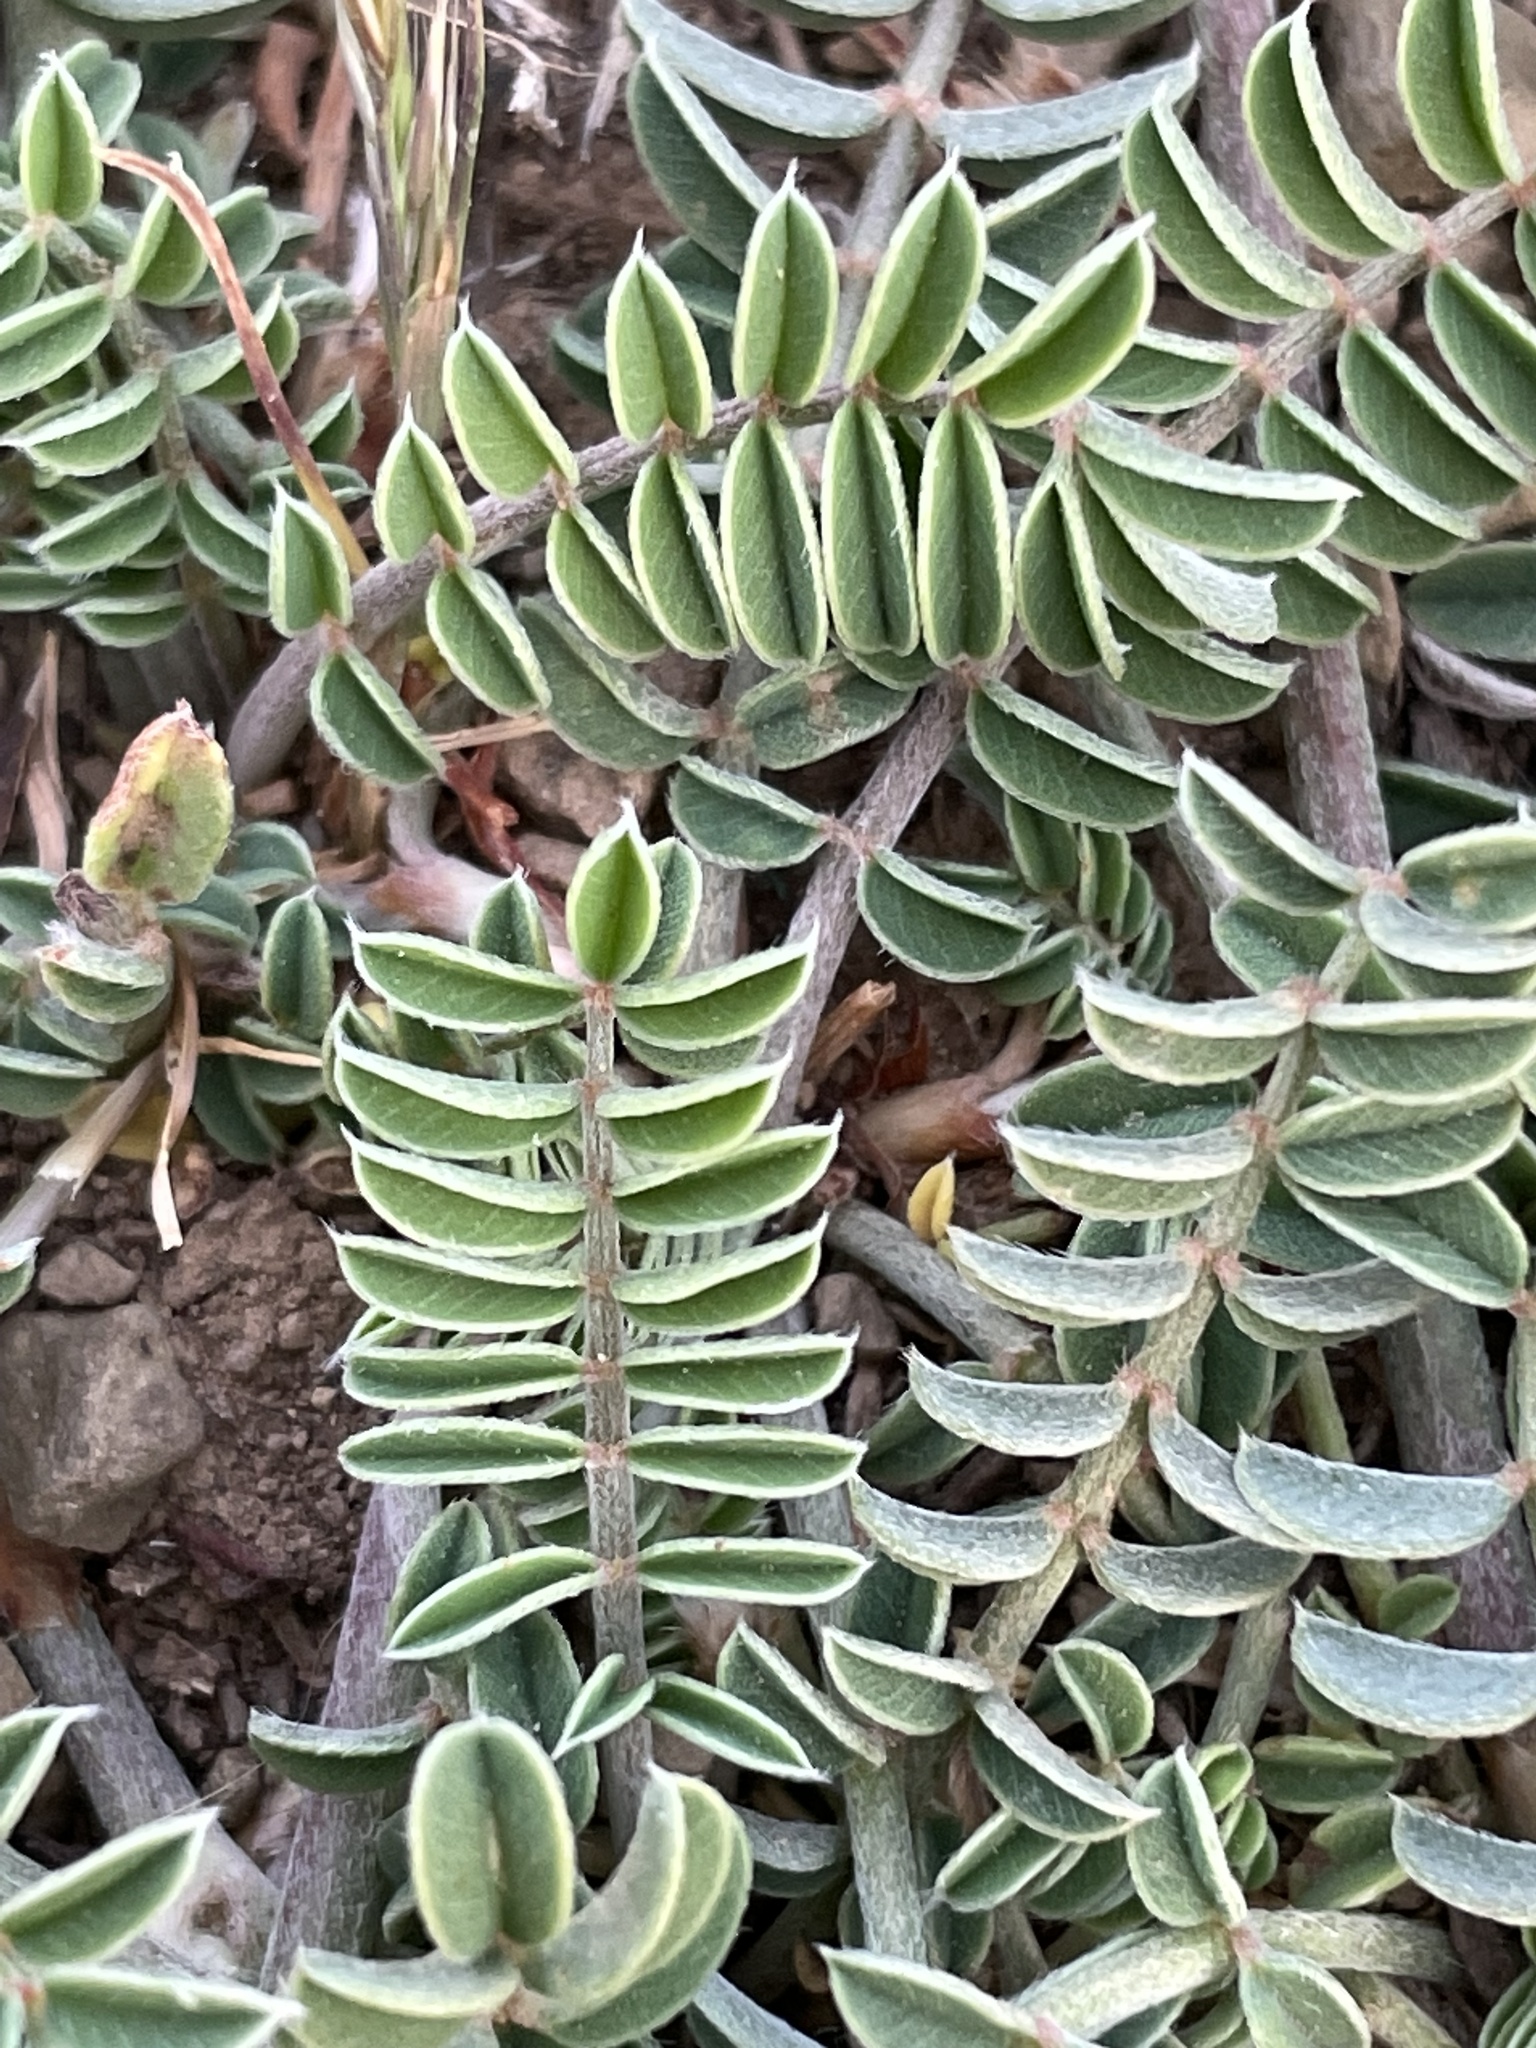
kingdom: Plantae
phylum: Tracheophyta
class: Magnoliopsida
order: Fabales
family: Fabaceae
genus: Onobrychis
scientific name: Onobrychis conferta
